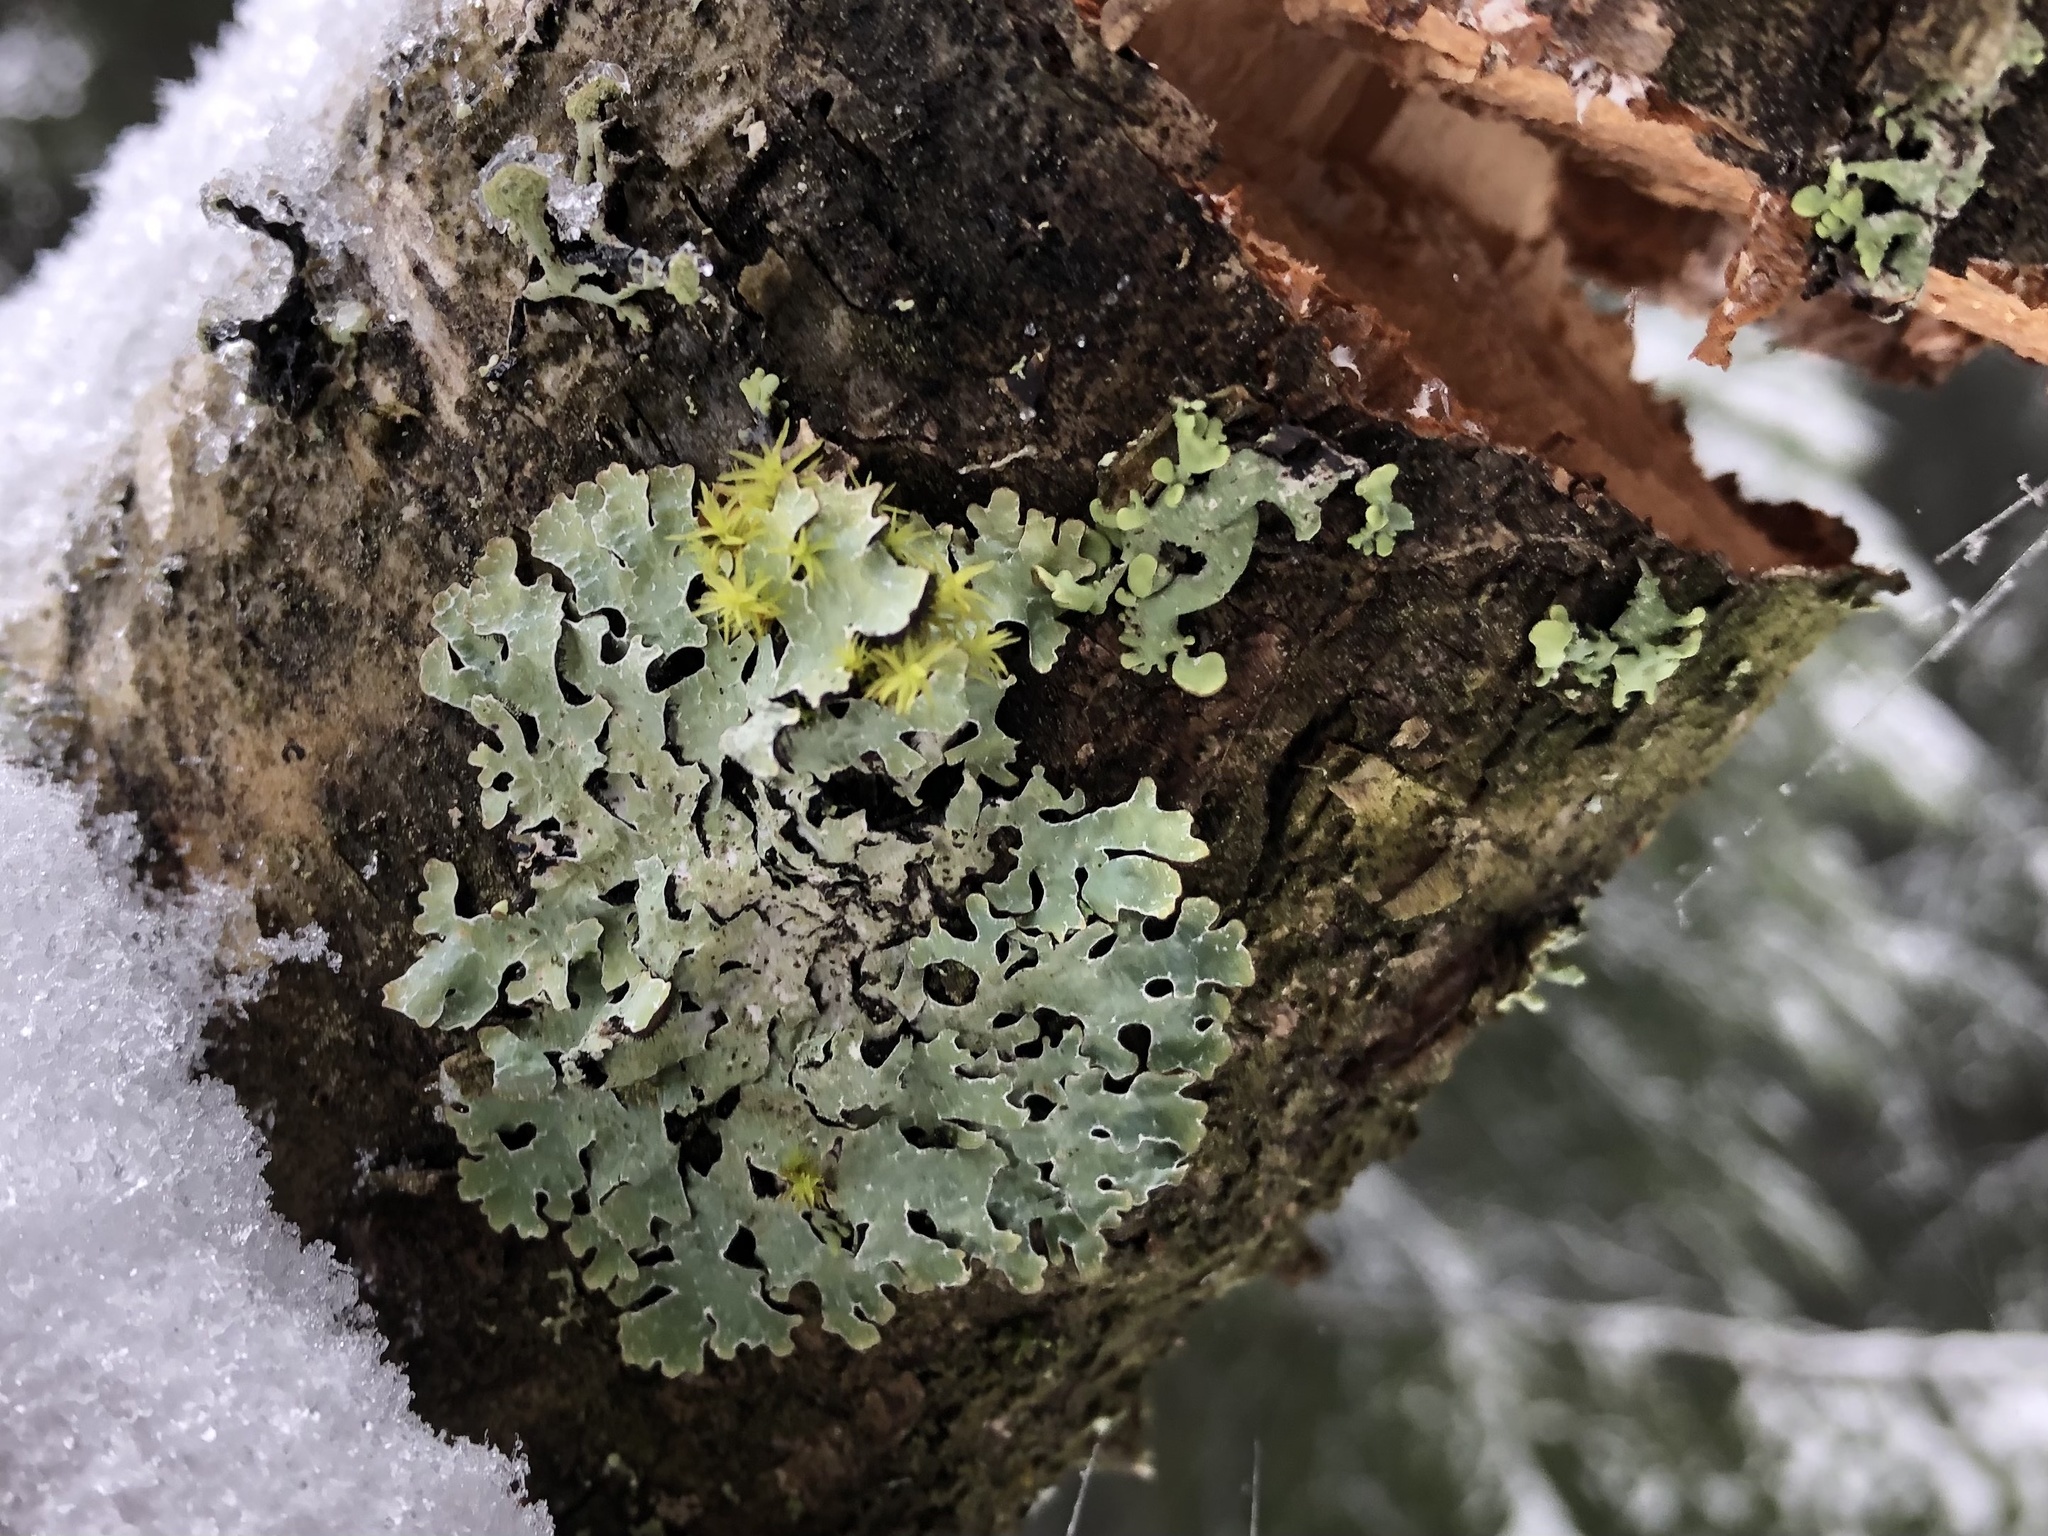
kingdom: Fungi
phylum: Ascomycota
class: Lecanoromycetes
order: Lecanorales
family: Parmeliaceae
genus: Parmelia
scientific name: Parmelia sulcata
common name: Netted shield lichen
